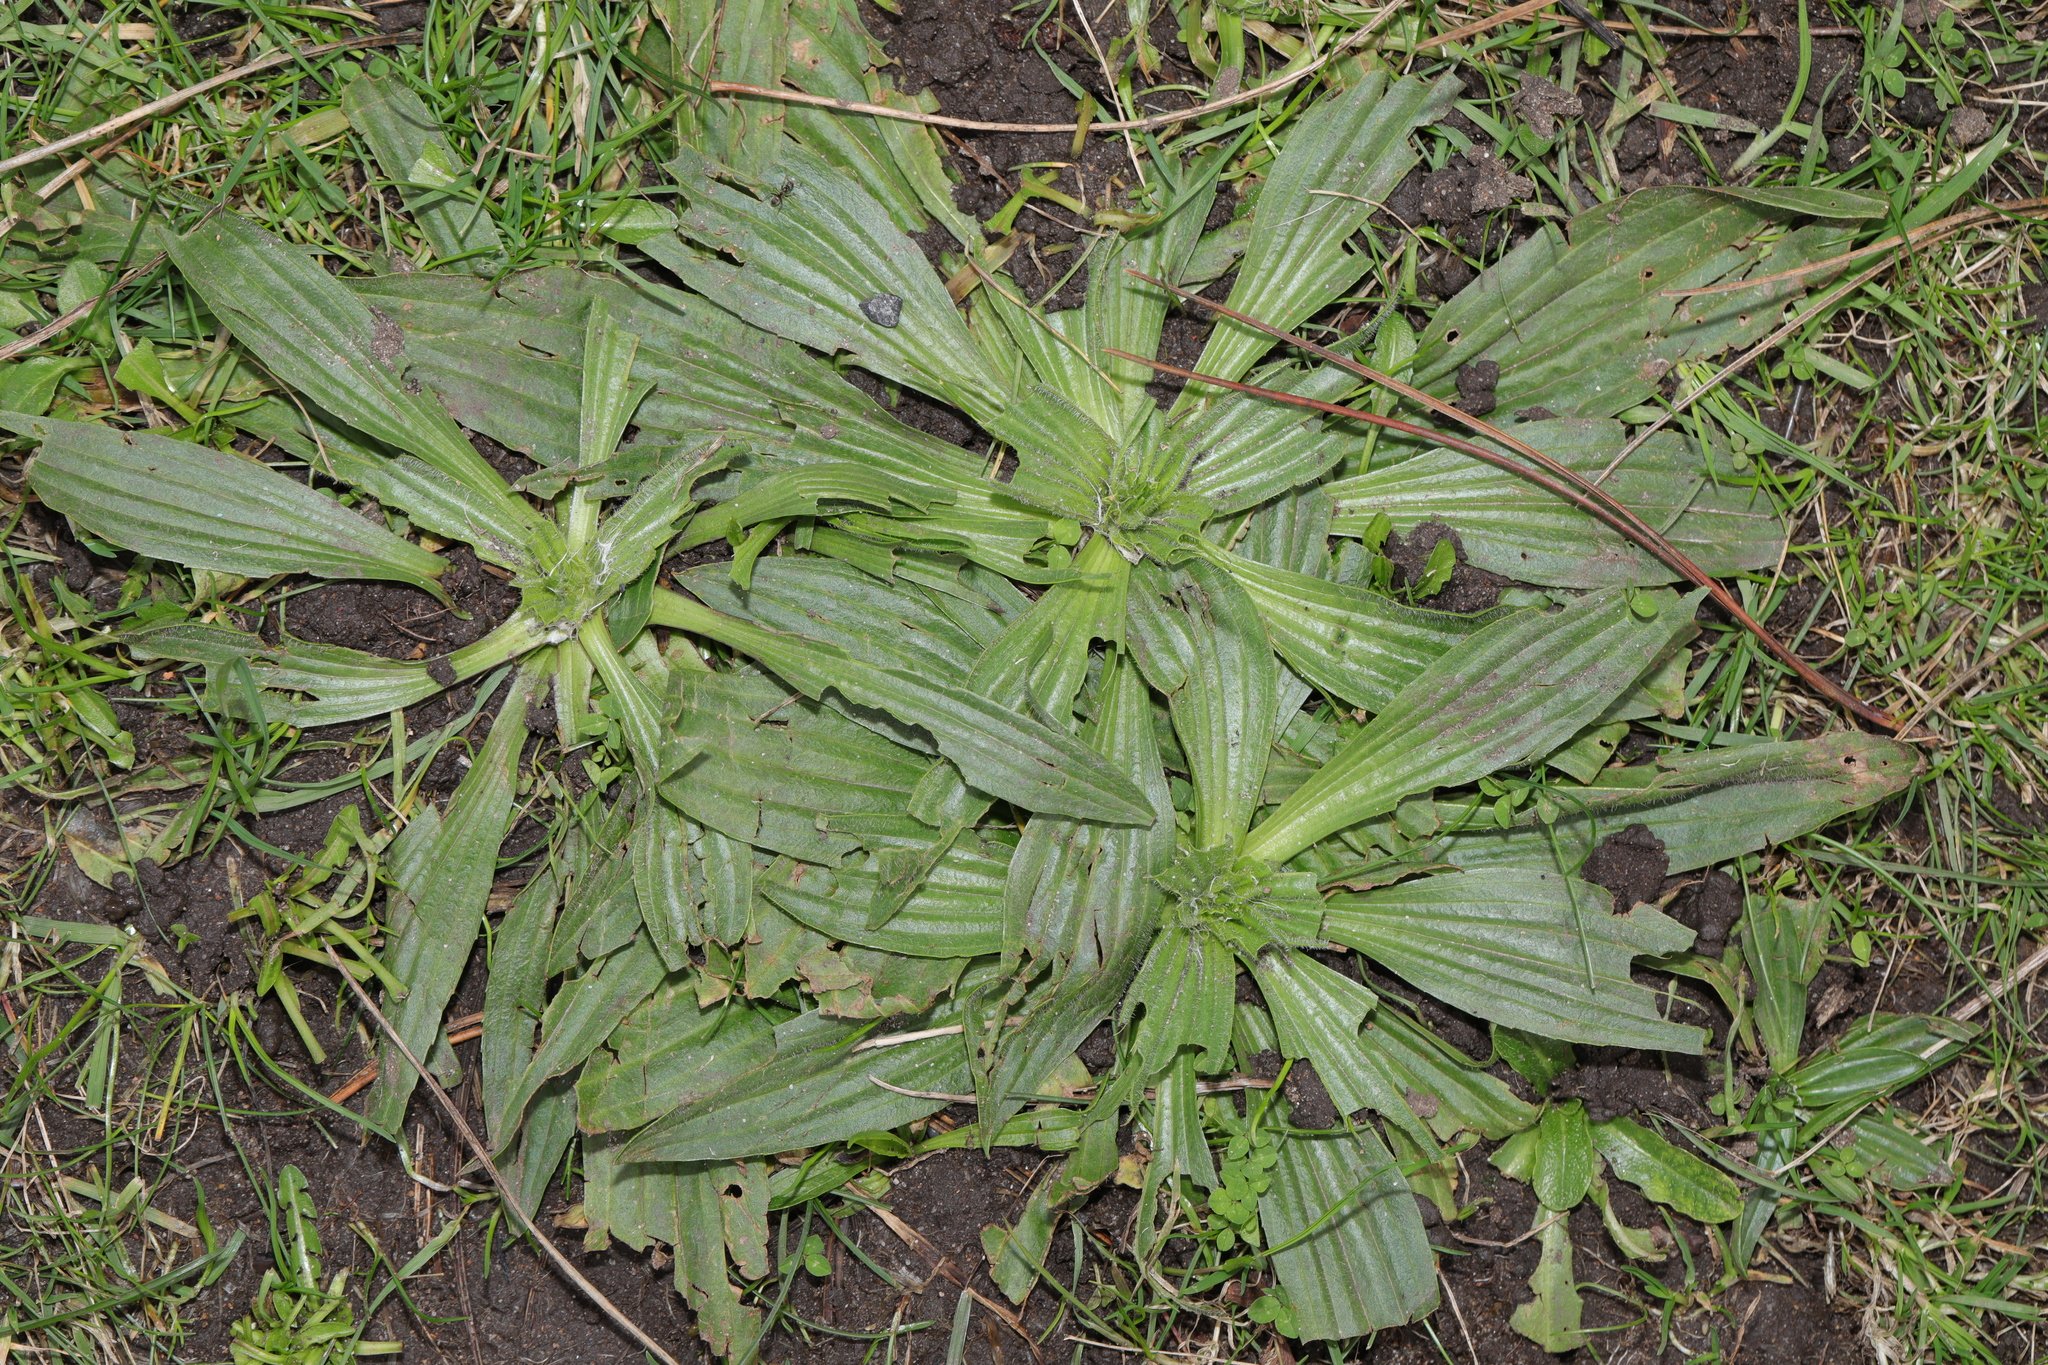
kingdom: Plantae
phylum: Tracheophyta
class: Magnoliopsida
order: Lamiales
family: Plantaginaceae
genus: Plantago
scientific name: Plantago lanceolata
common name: Ribwort plantain
